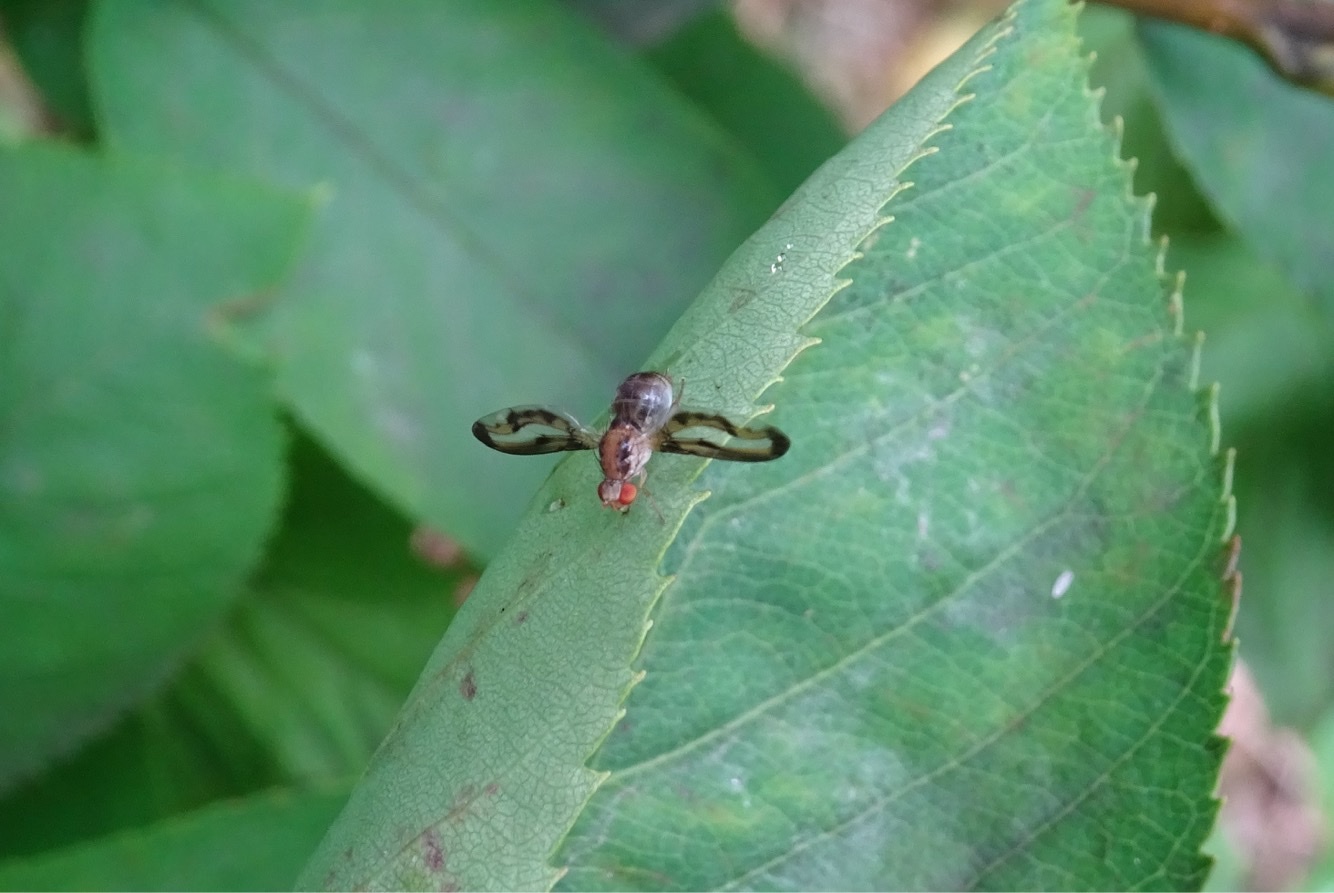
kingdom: Animalia
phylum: Arthropoda
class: Insecta
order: Diptera
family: Pallopteridae
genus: Toxonevra
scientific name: Toxonevra muliebris
